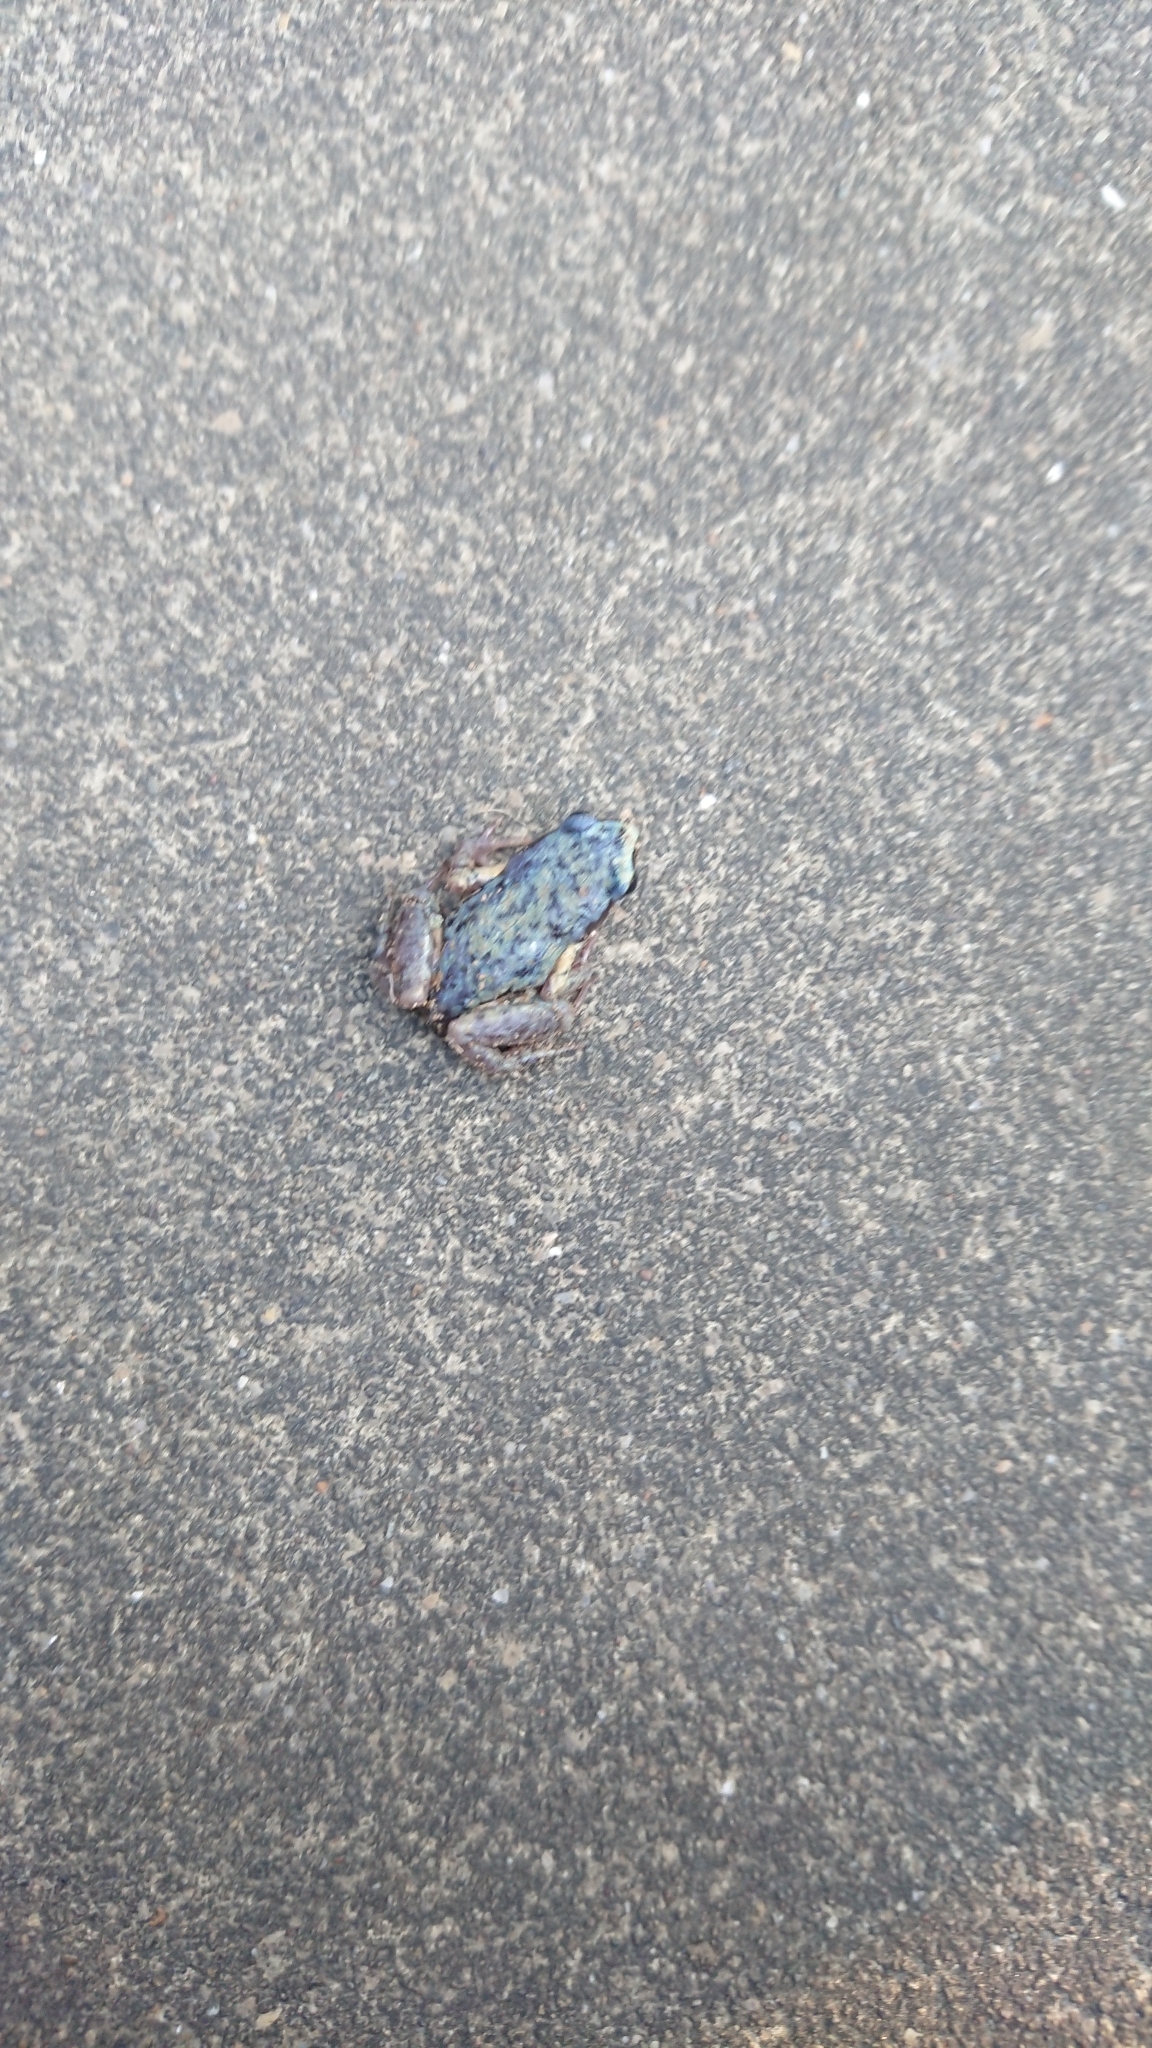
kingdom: Animalia
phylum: Chordata
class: Amphibia
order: Anura
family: Microhylidae
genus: Micryletta
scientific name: Micryletta steinegeri
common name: Stejneger's paddy frog
